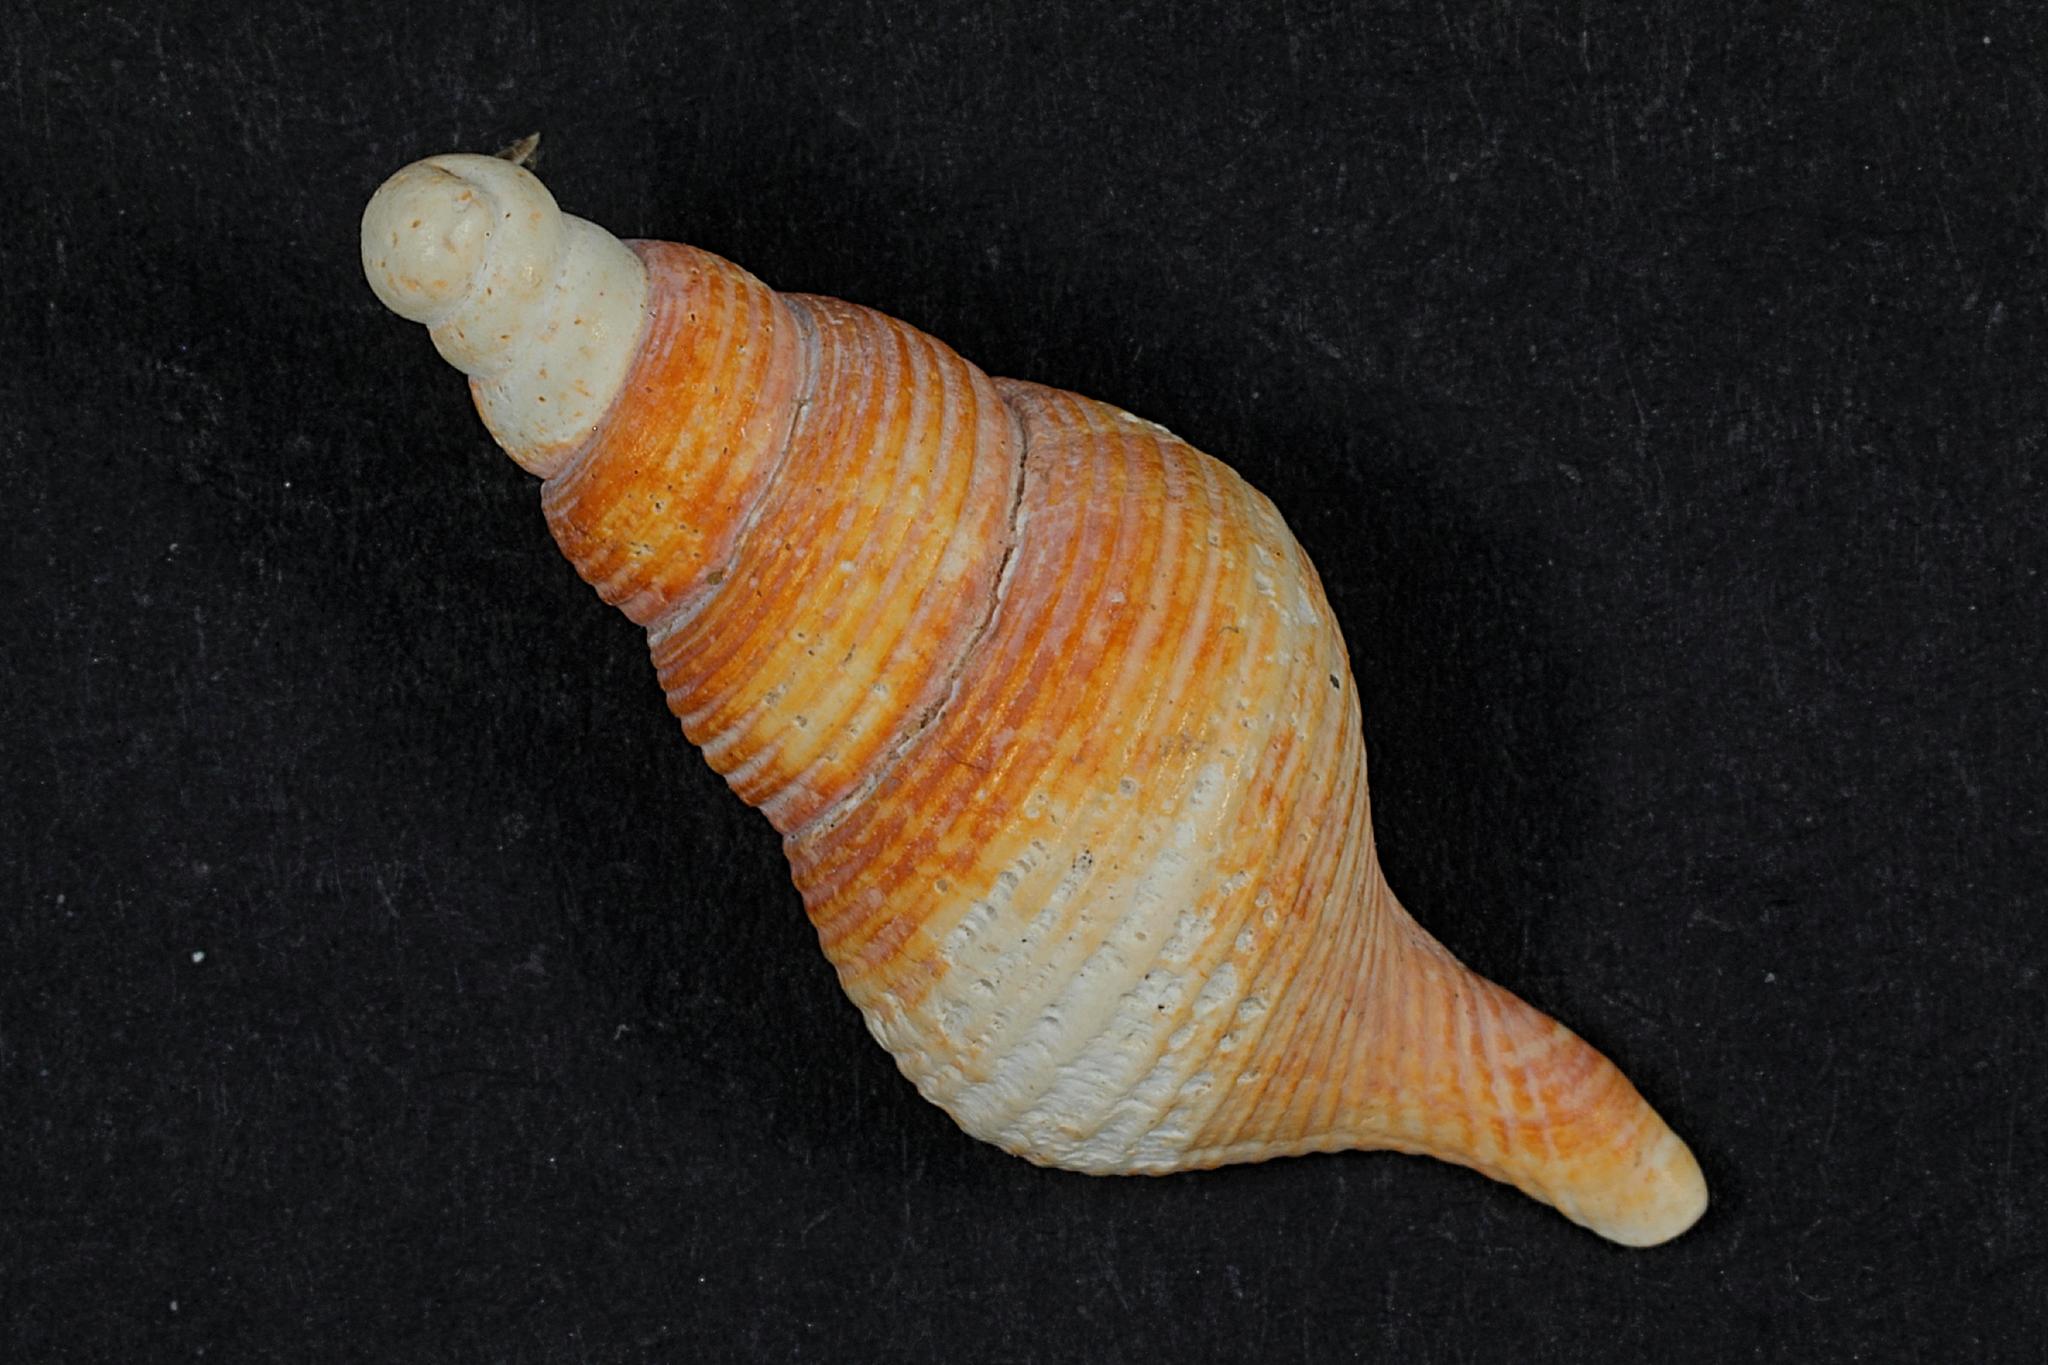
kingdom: Animalia
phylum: Mollusca
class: Gastropoda
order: Neogastropoda
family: Colidae
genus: Colus
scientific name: Colus gracilis
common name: Graceful colus
